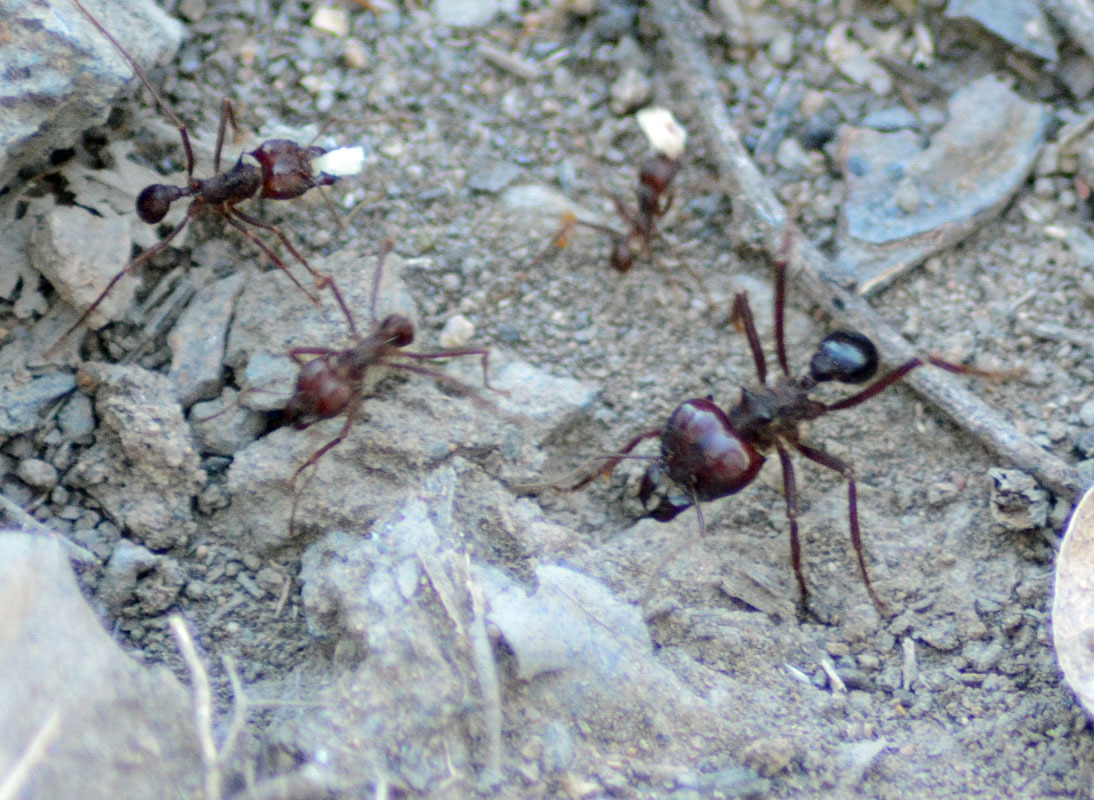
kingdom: Animalia
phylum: Arthropoda
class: Insecta
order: Hymenoptera
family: Formicidae
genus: Atta
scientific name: Atta mexicana
